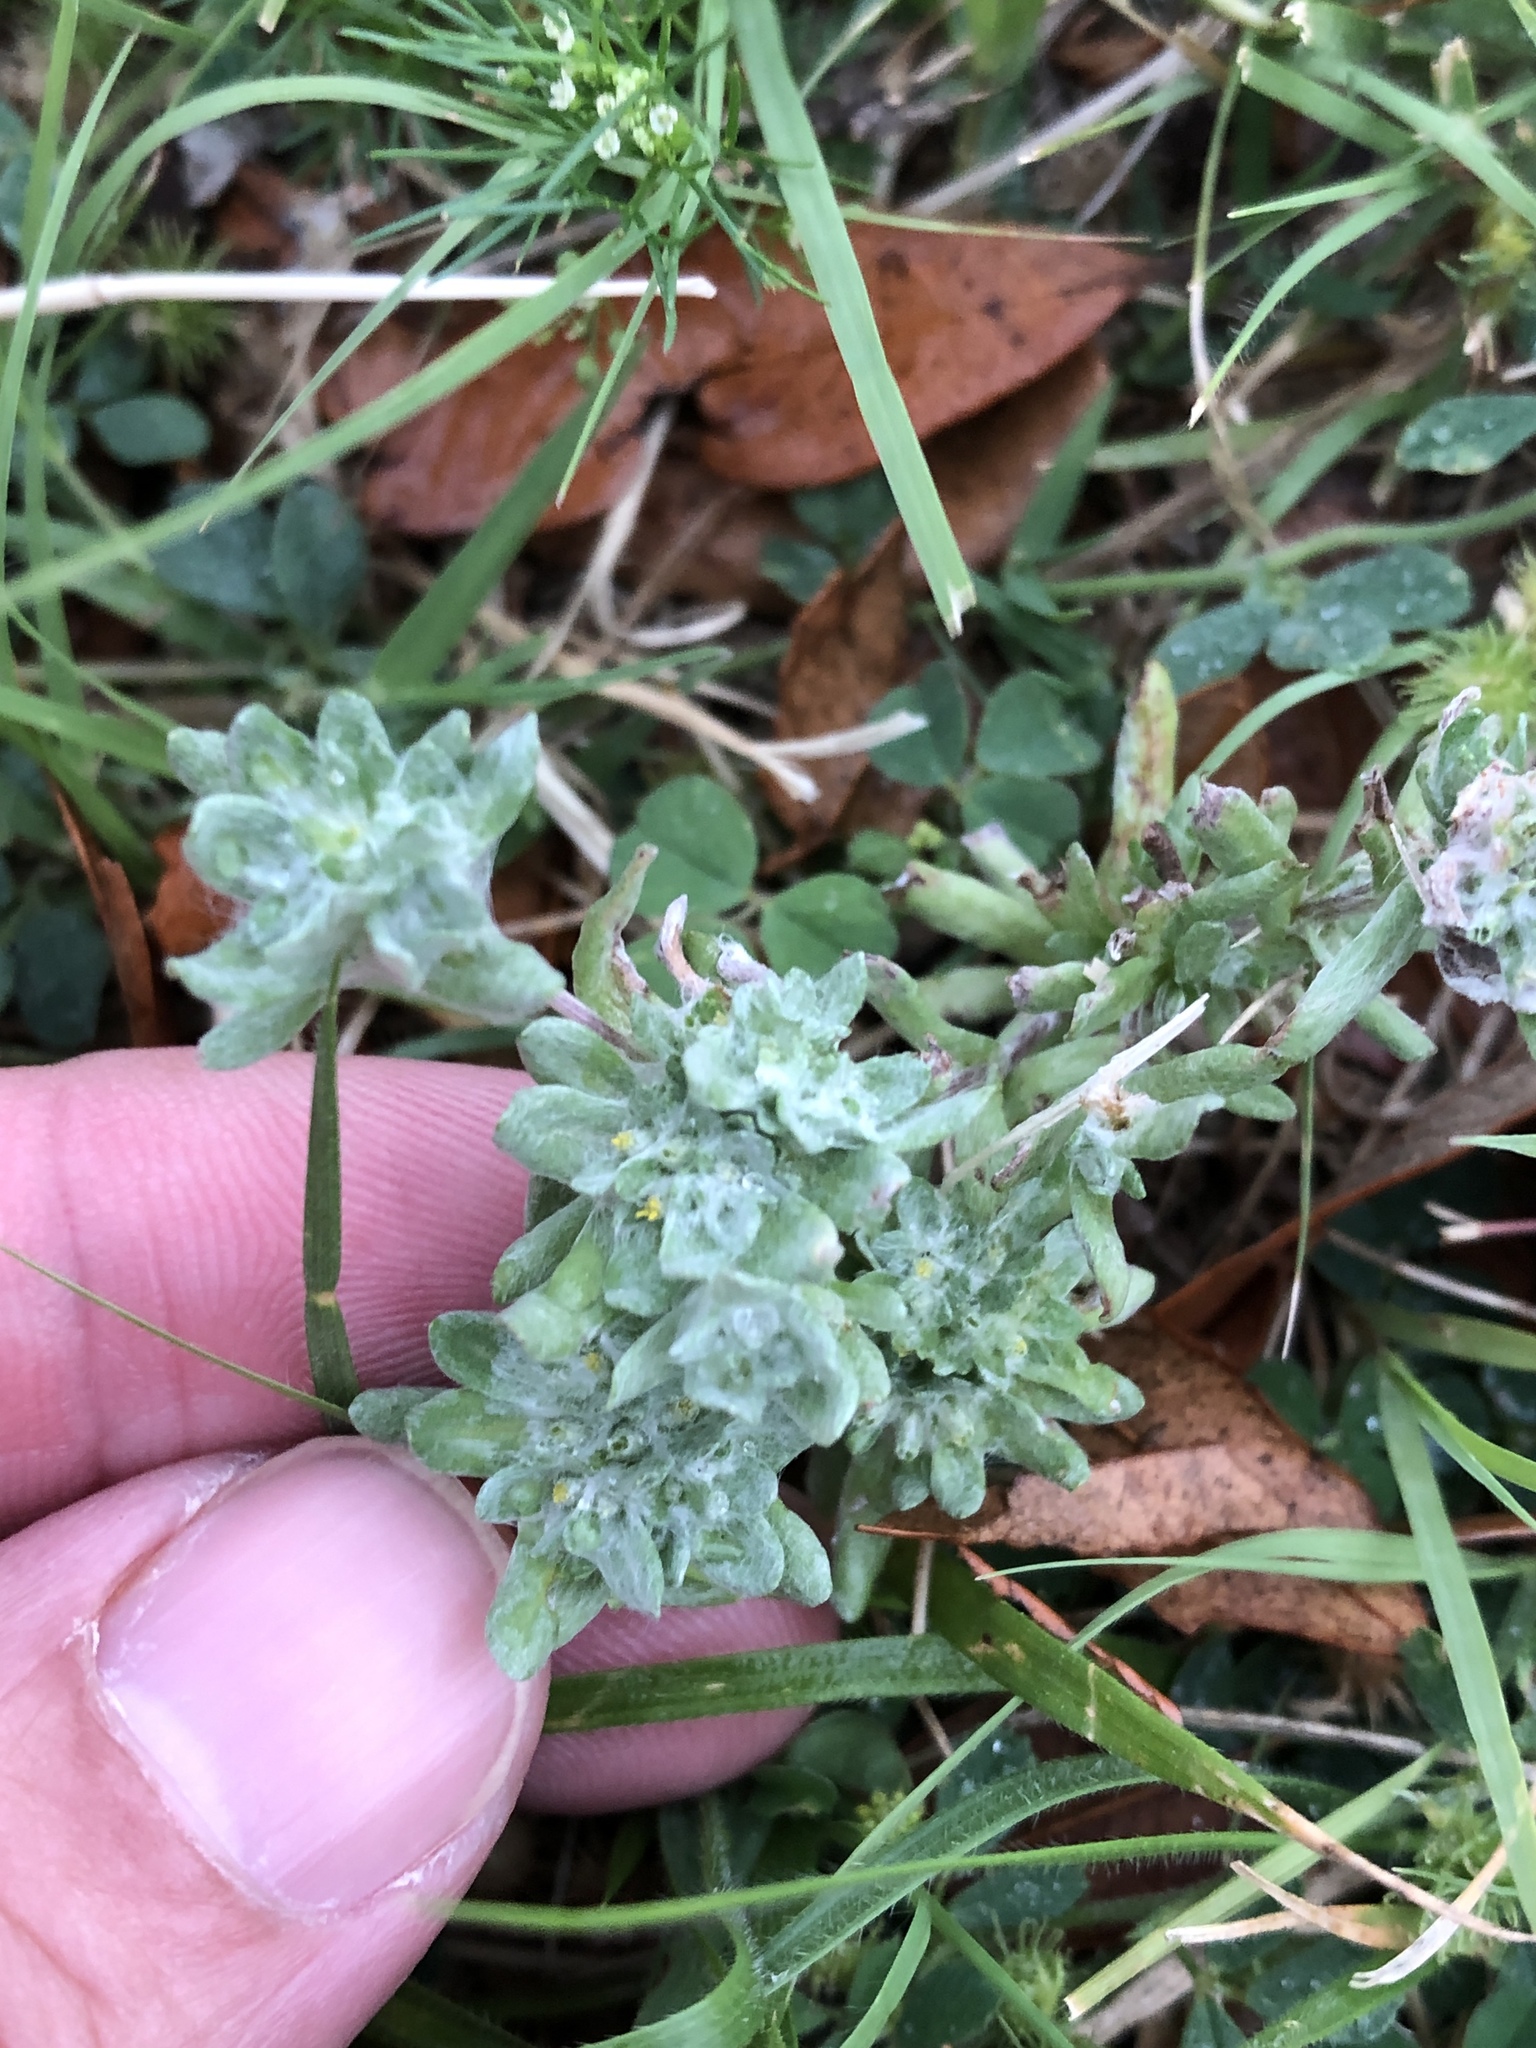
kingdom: Plantae
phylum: Tracheophyta
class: Magnoliopsida
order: Asterales
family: Asteraceae
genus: Diaperia
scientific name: Diaperia prolifera
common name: Big-head rabbit-tobacco
